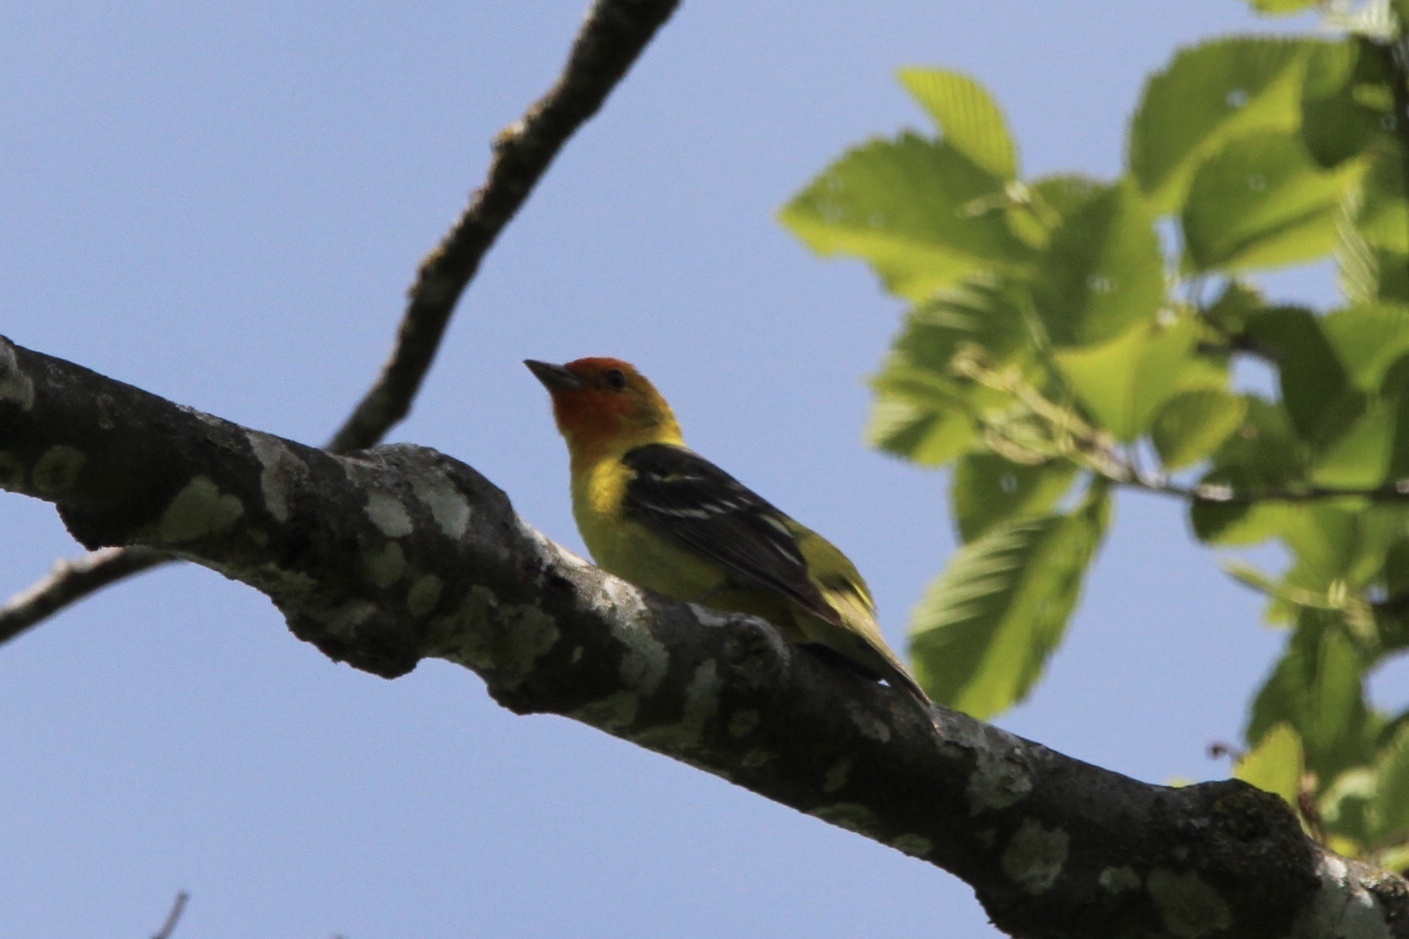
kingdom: Animalia
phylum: Chordata
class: Aves
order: Passeriformes
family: Cardinalidae
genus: Piranga
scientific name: Piranga ludoviciana
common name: Western tanager
